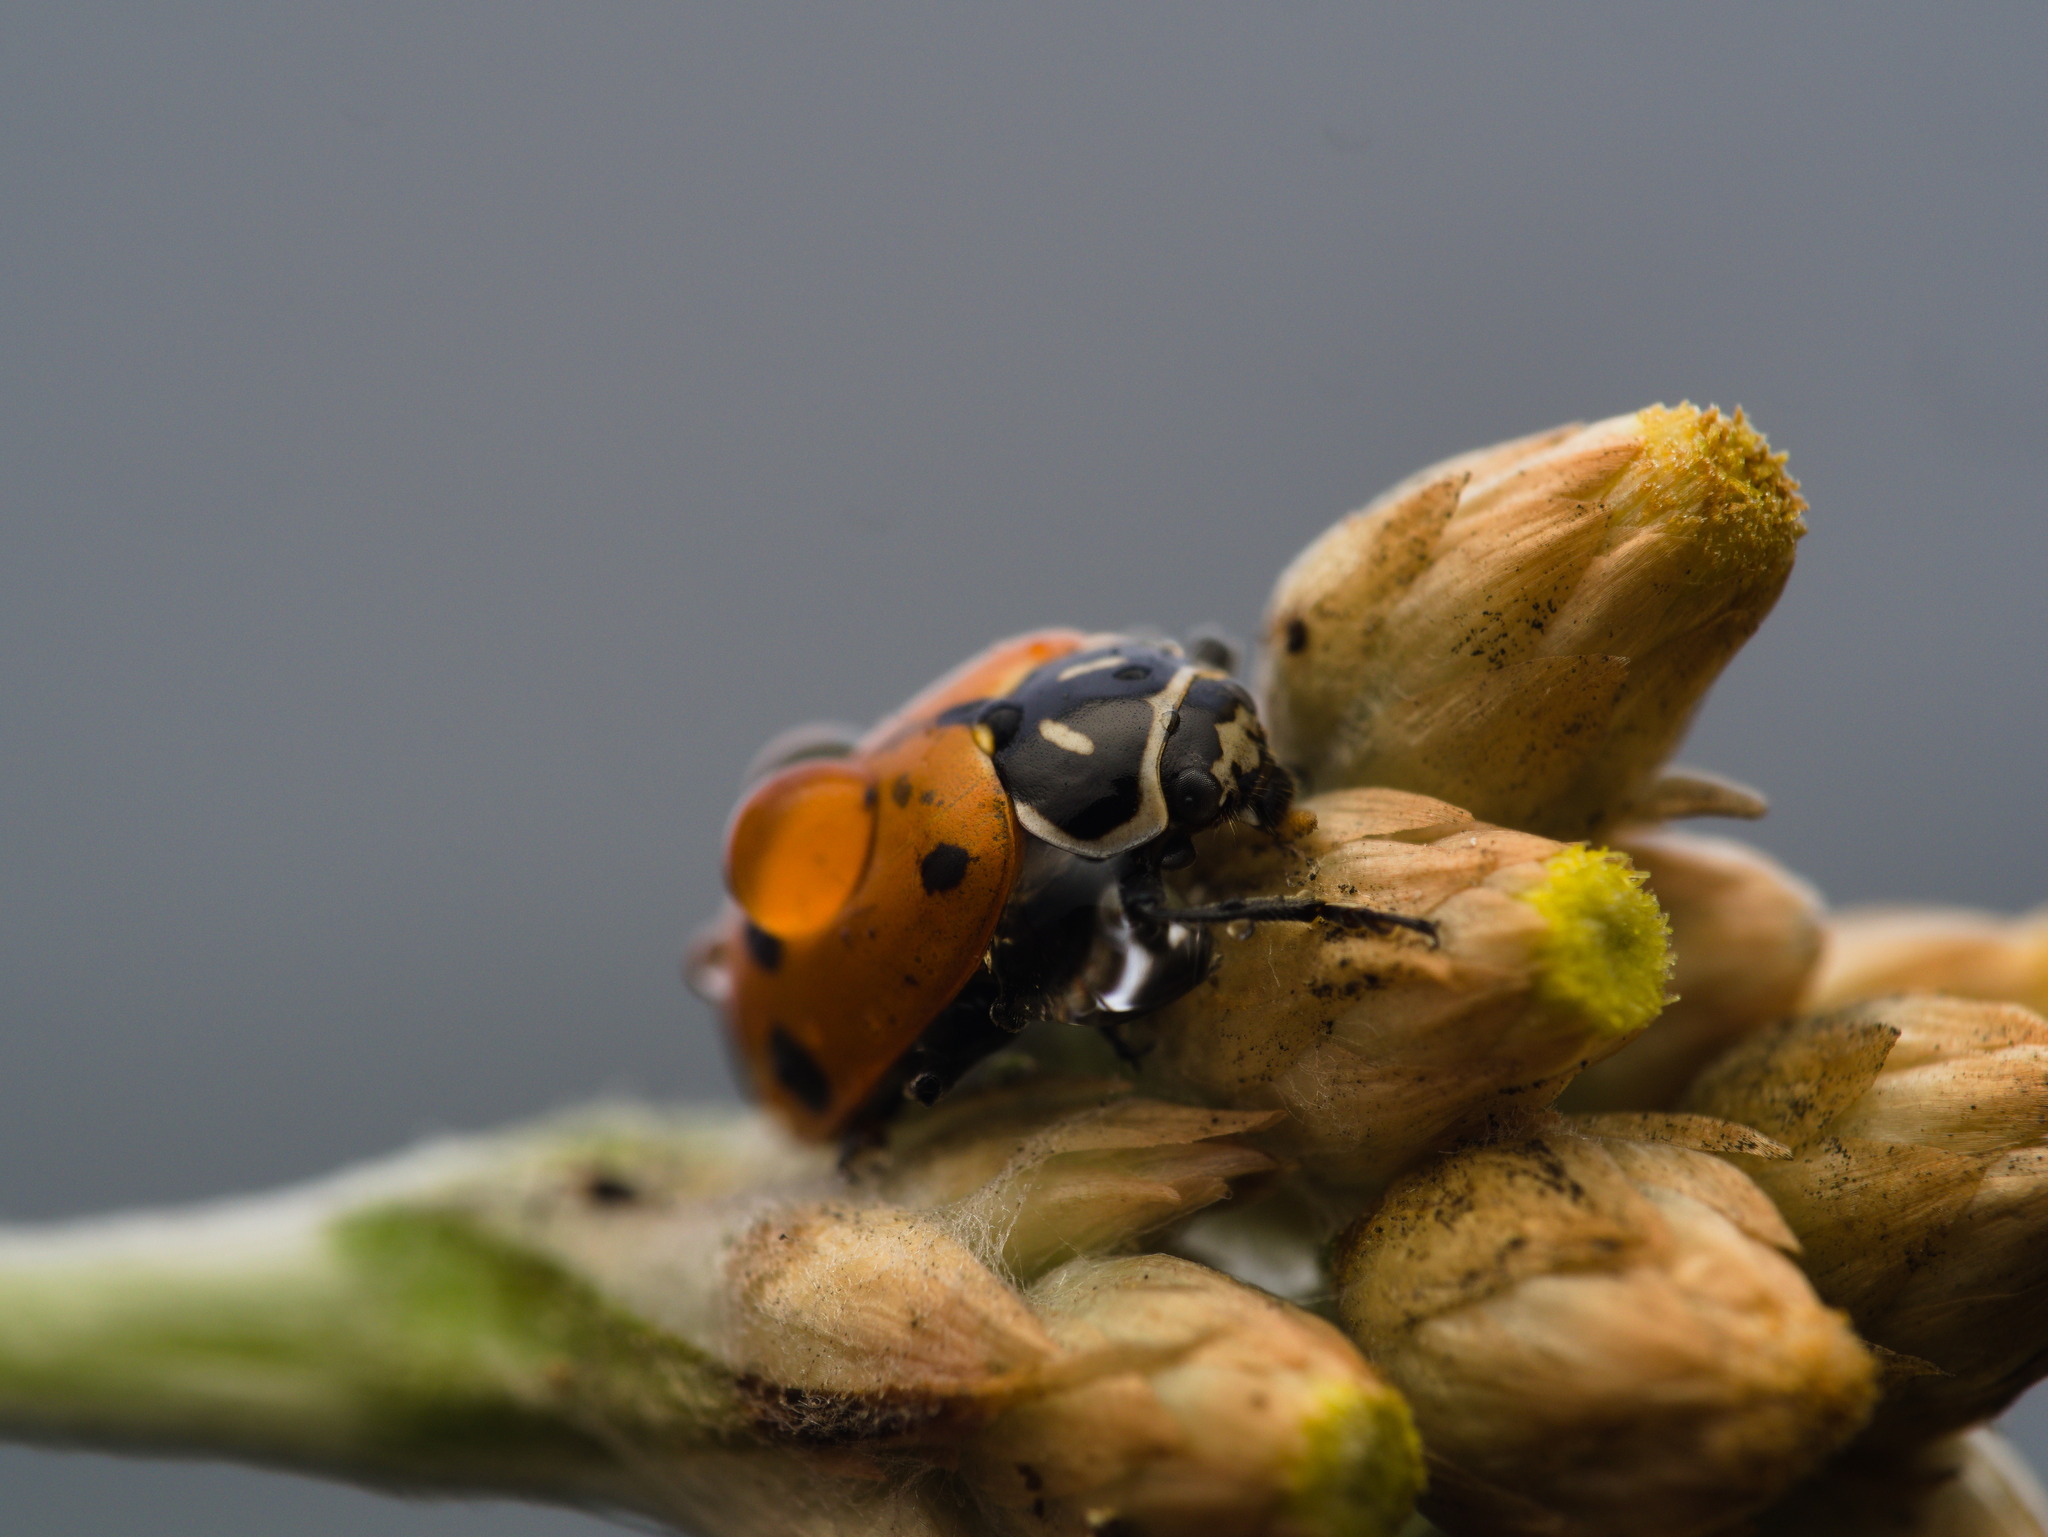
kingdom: Animalia
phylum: Arthropoda
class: Insecta
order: Coleoptera
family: Coccinellidae
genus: Hippodamia
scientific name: Hippodamia convergens
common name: Convergent lady beetle
